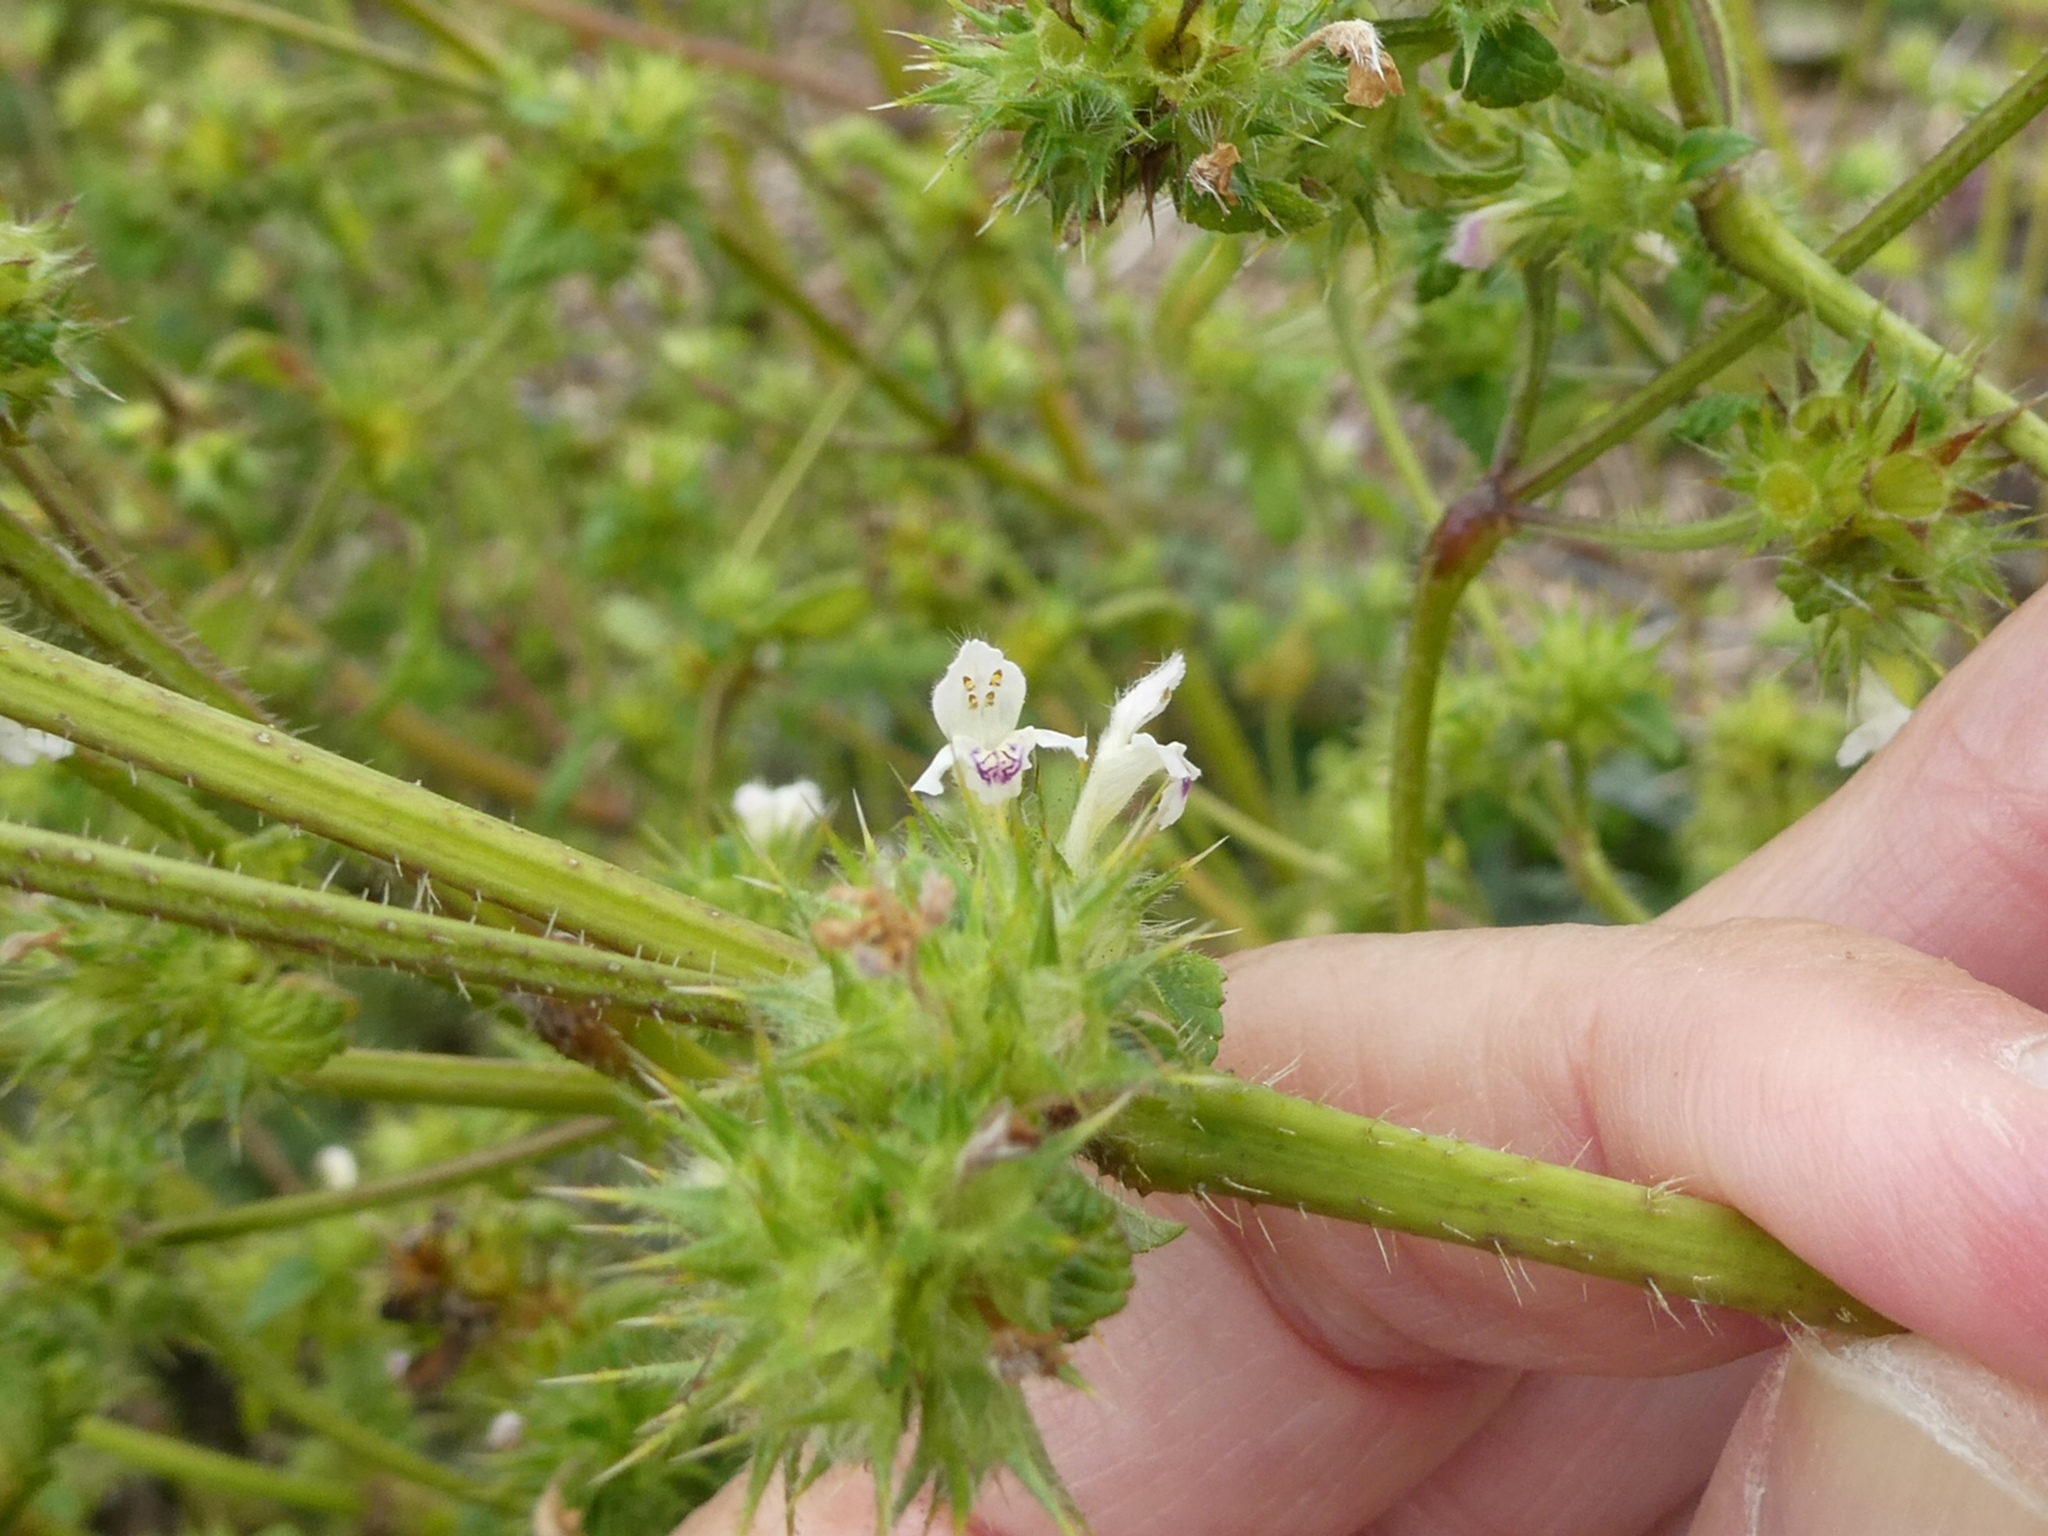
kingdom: Plantae
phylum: Tracheophyta
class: Magnoliopsida
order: Lamiales
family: Lamiaceae
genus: Galeopsis
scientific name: Galeopsis tetrahit
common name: Common hemp-nettle
